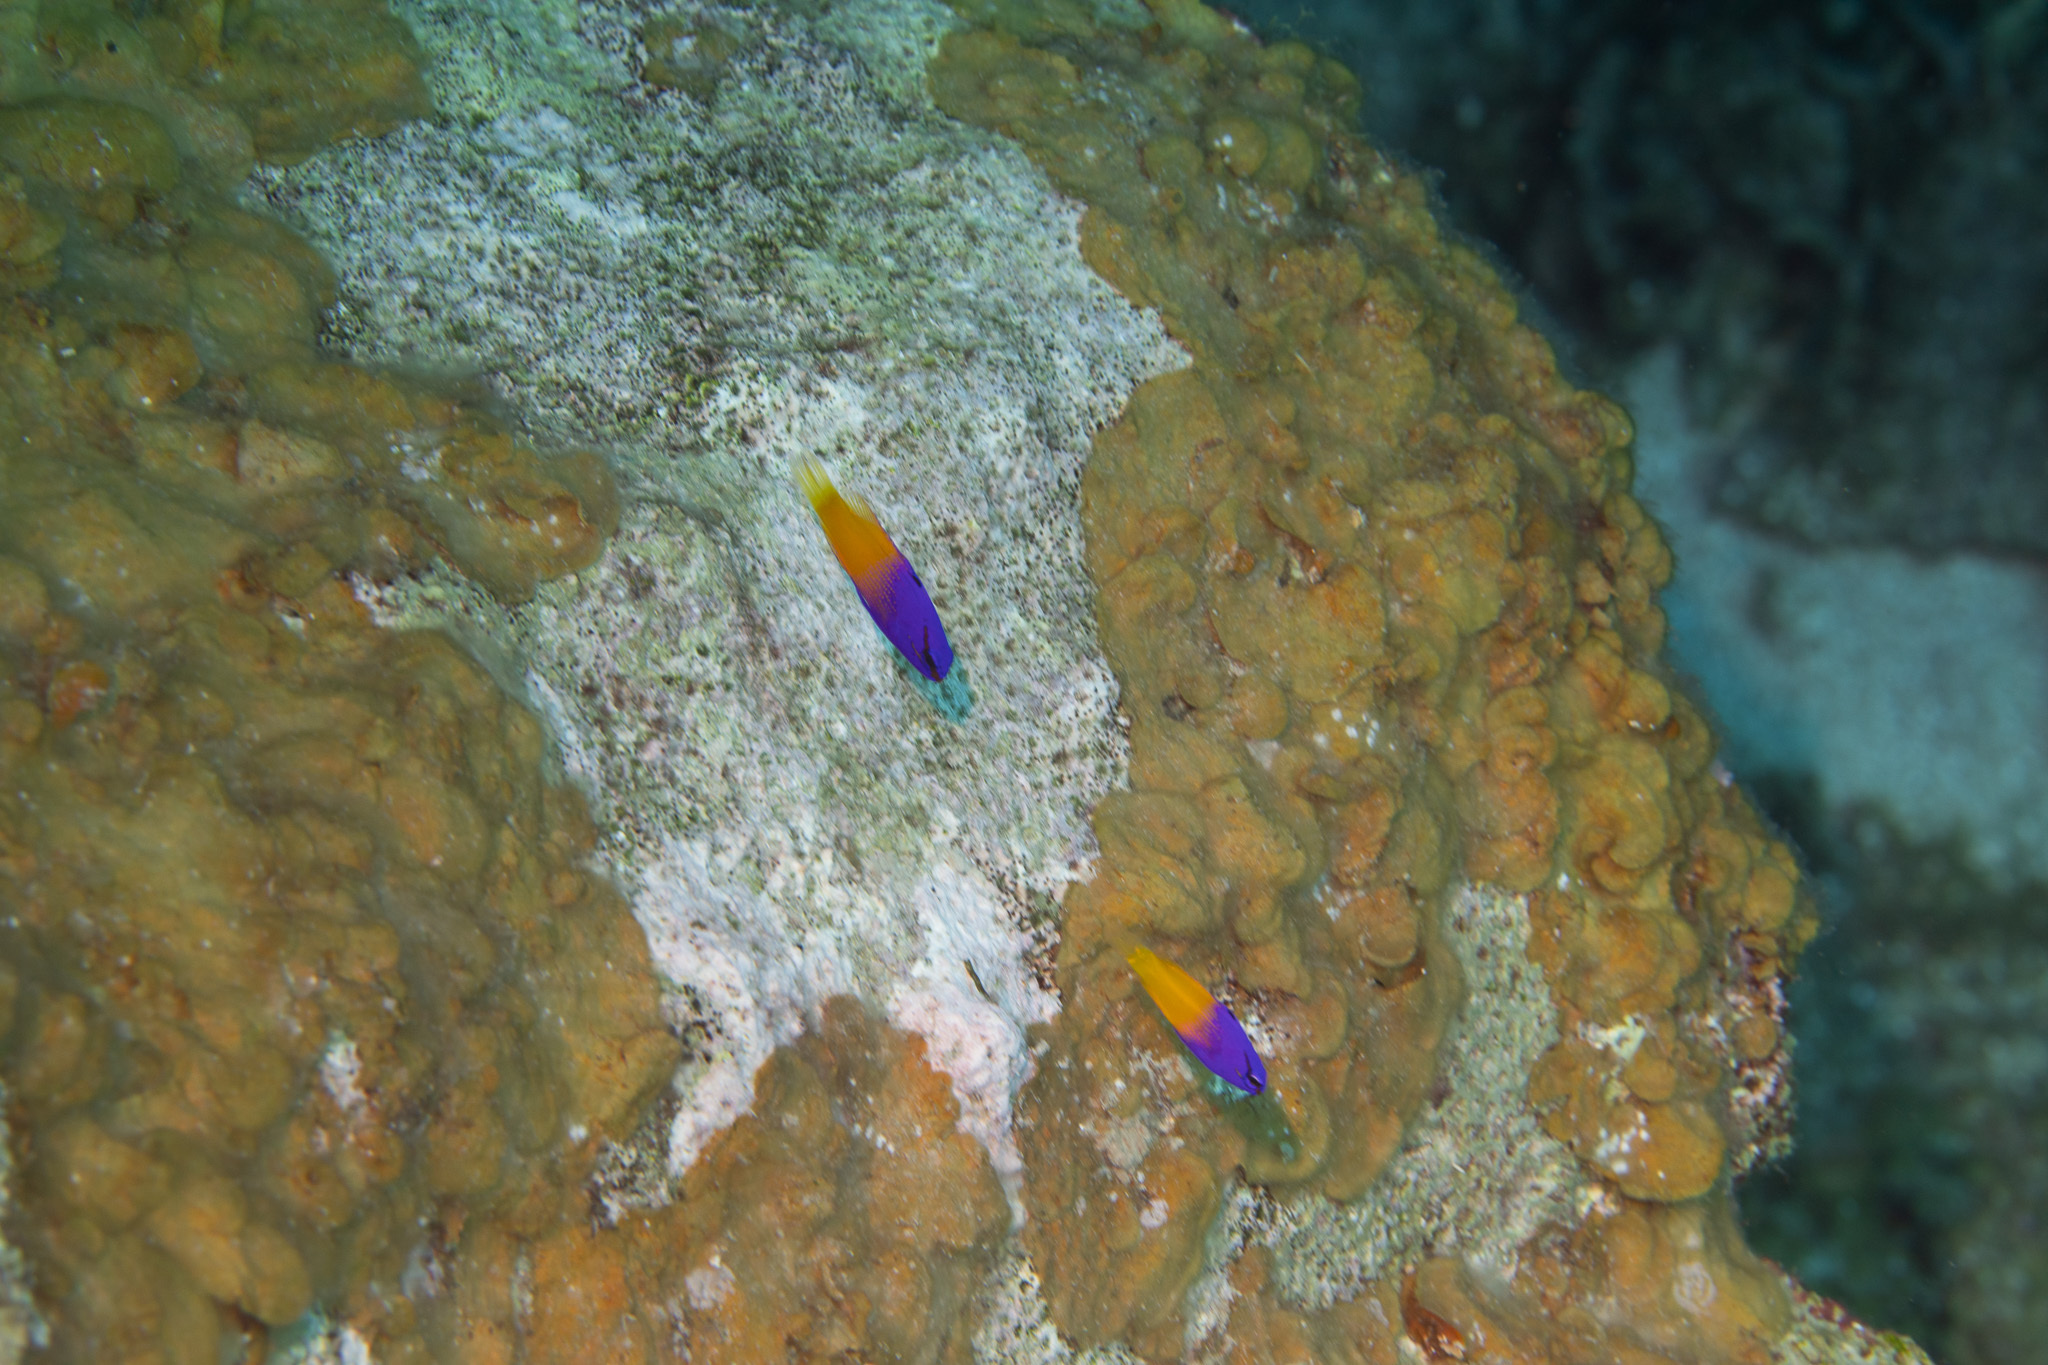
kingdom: Animalia
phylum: Chordata
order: Perciformes
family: Grammatidae
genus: Gramma
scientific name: Gramma loreto
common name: Fairy basslet
